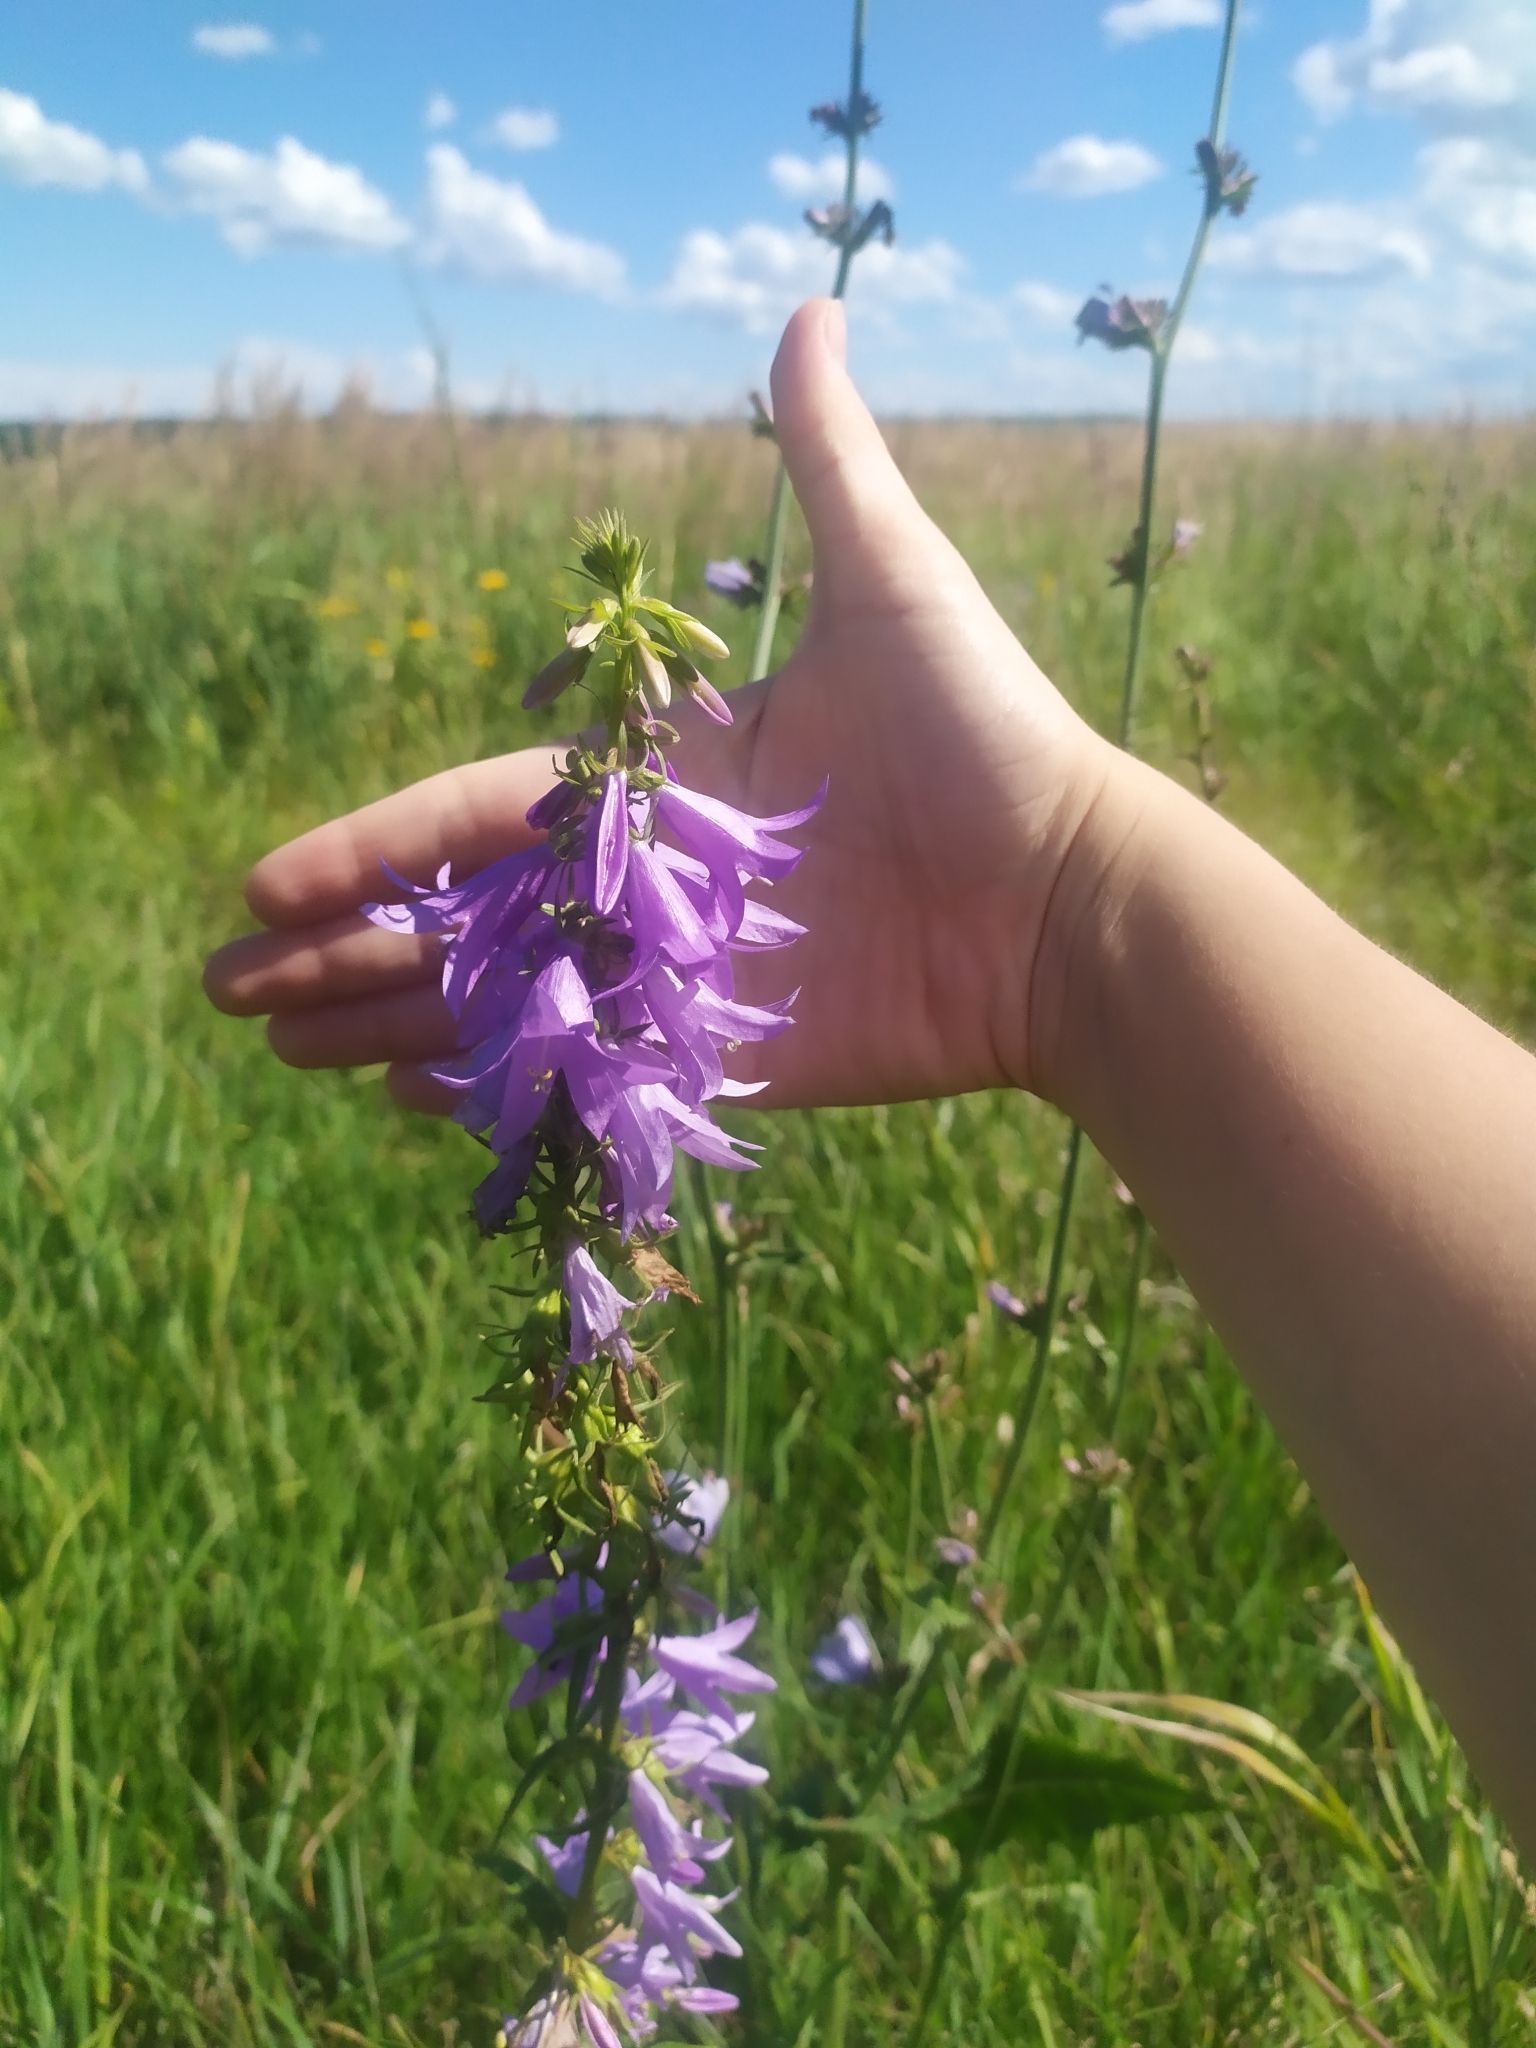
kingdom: Plantae
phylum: Tracheophyta
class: Magnoliopsida
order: Asterales
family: Campanulaceae
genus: Campanula
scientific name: Campanula rapunculoides
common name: Creeping bellflower
